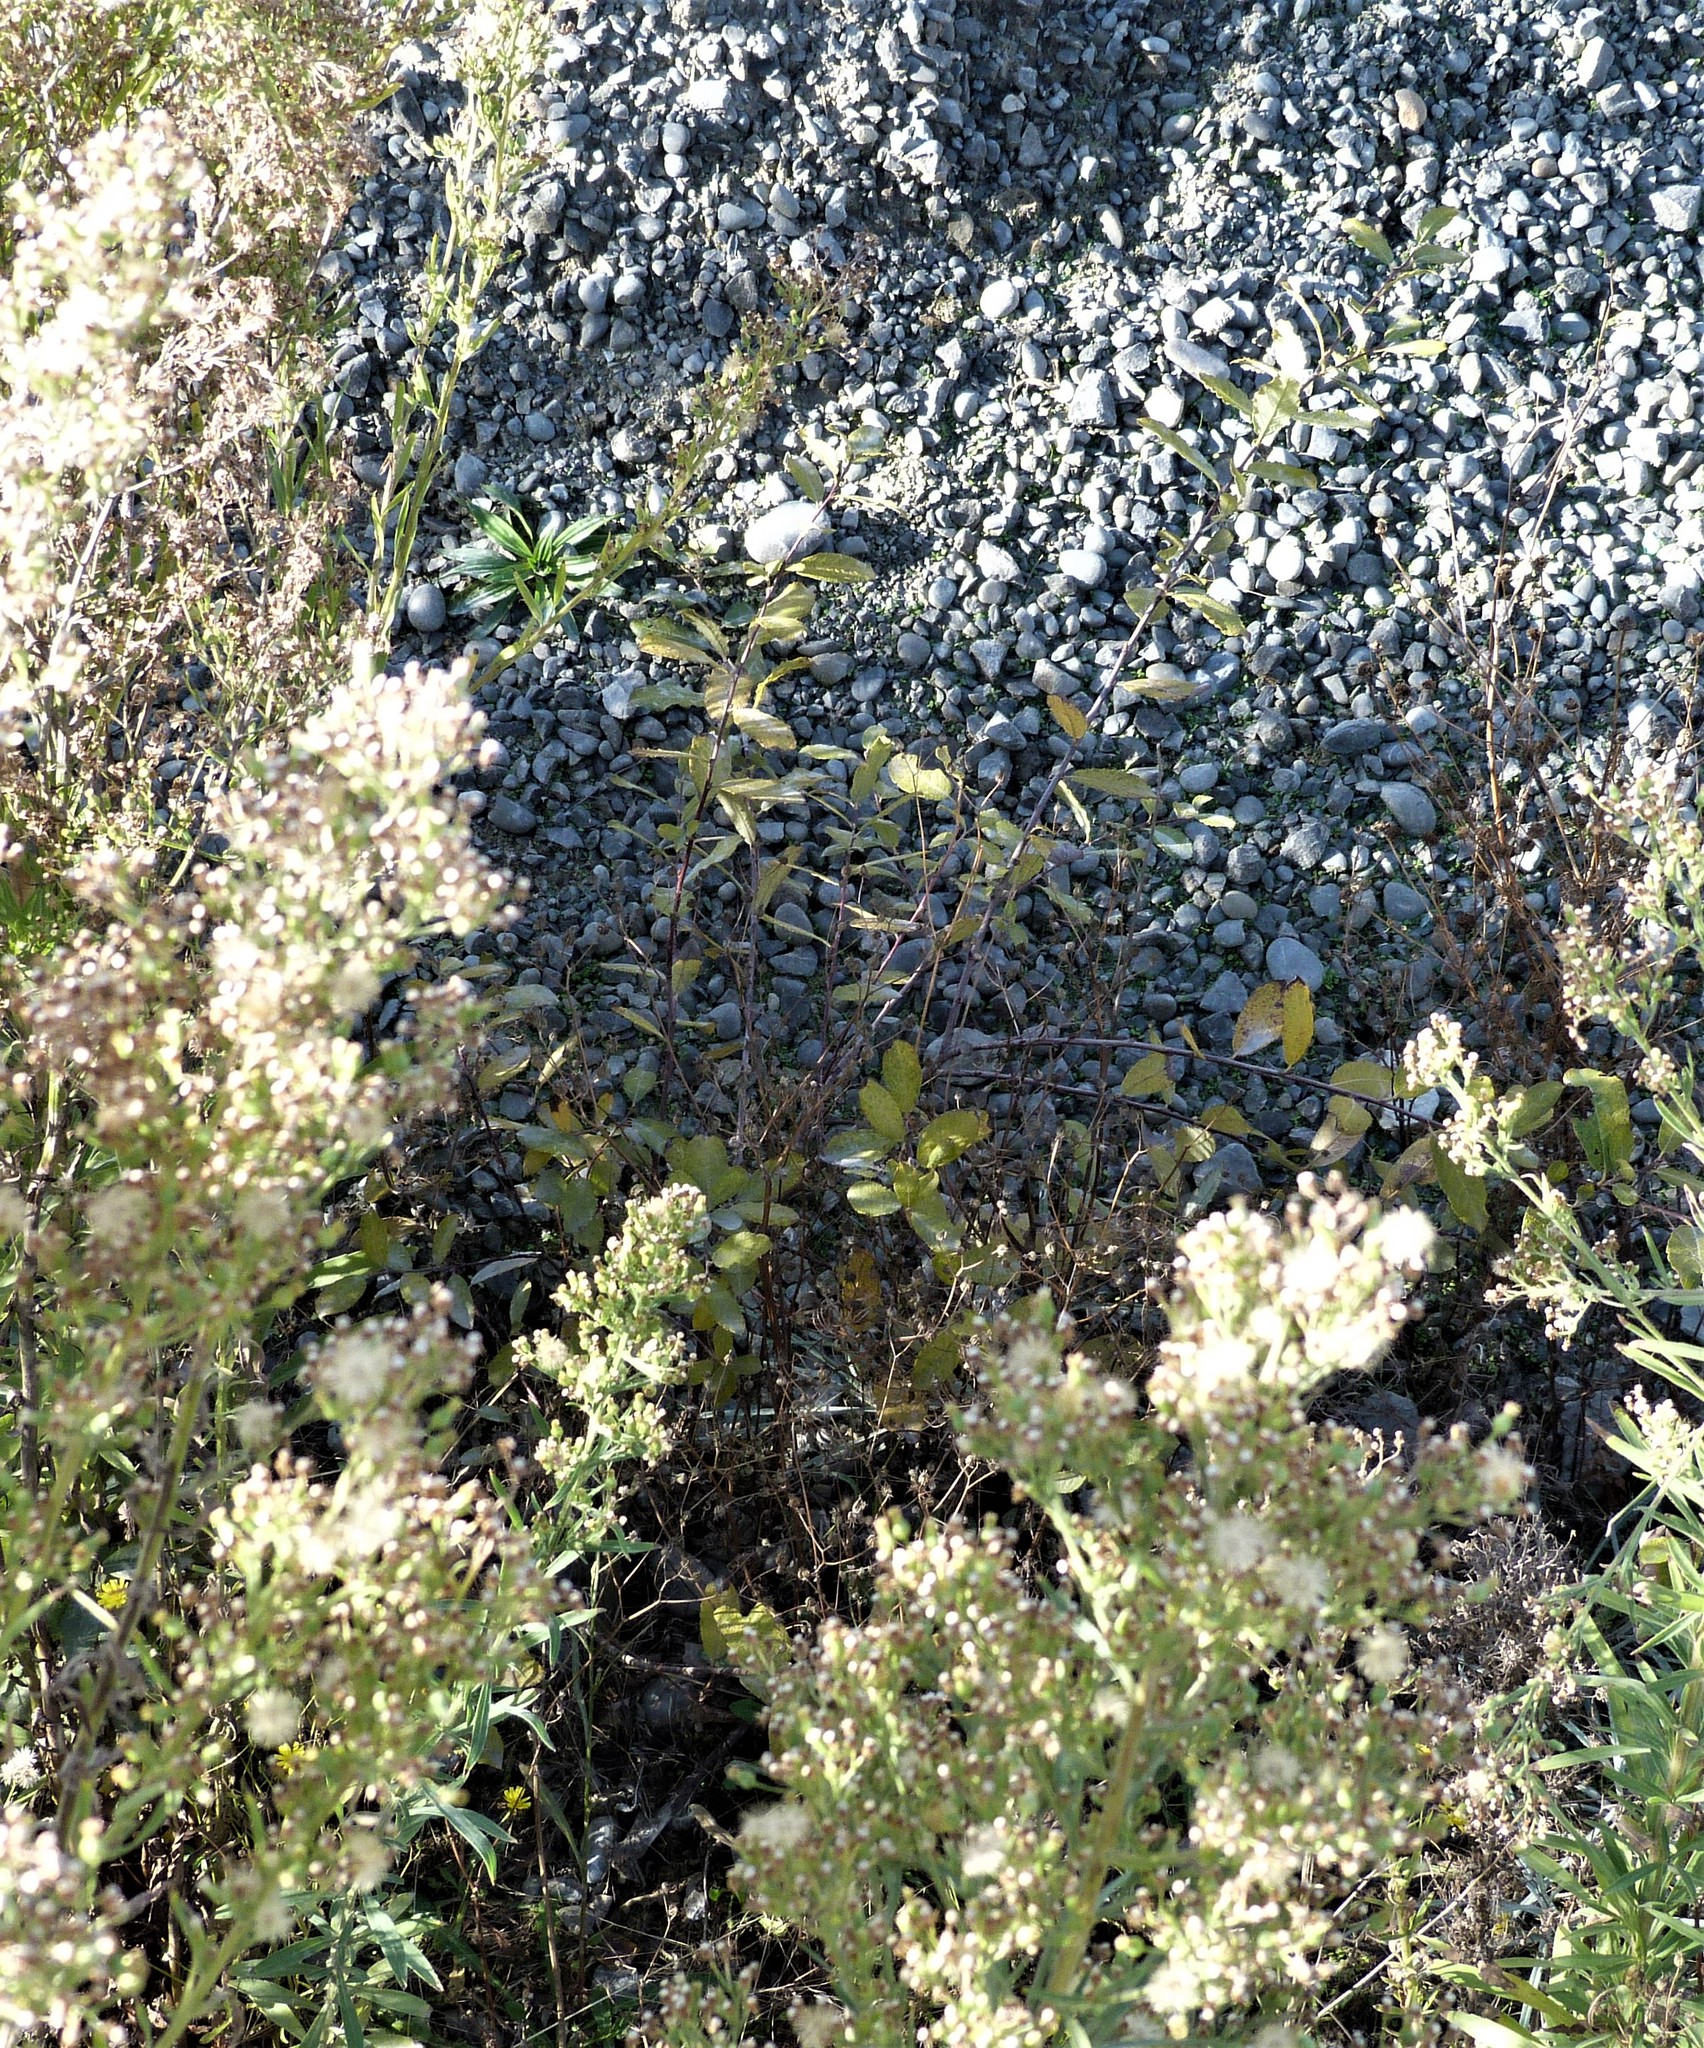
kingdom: Plantae
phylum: Tracheophyta
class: Magnoliopsida
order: Malpighiales
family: Salicaceae
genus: Salix
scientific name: Salix cinerea
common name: Common sallow
